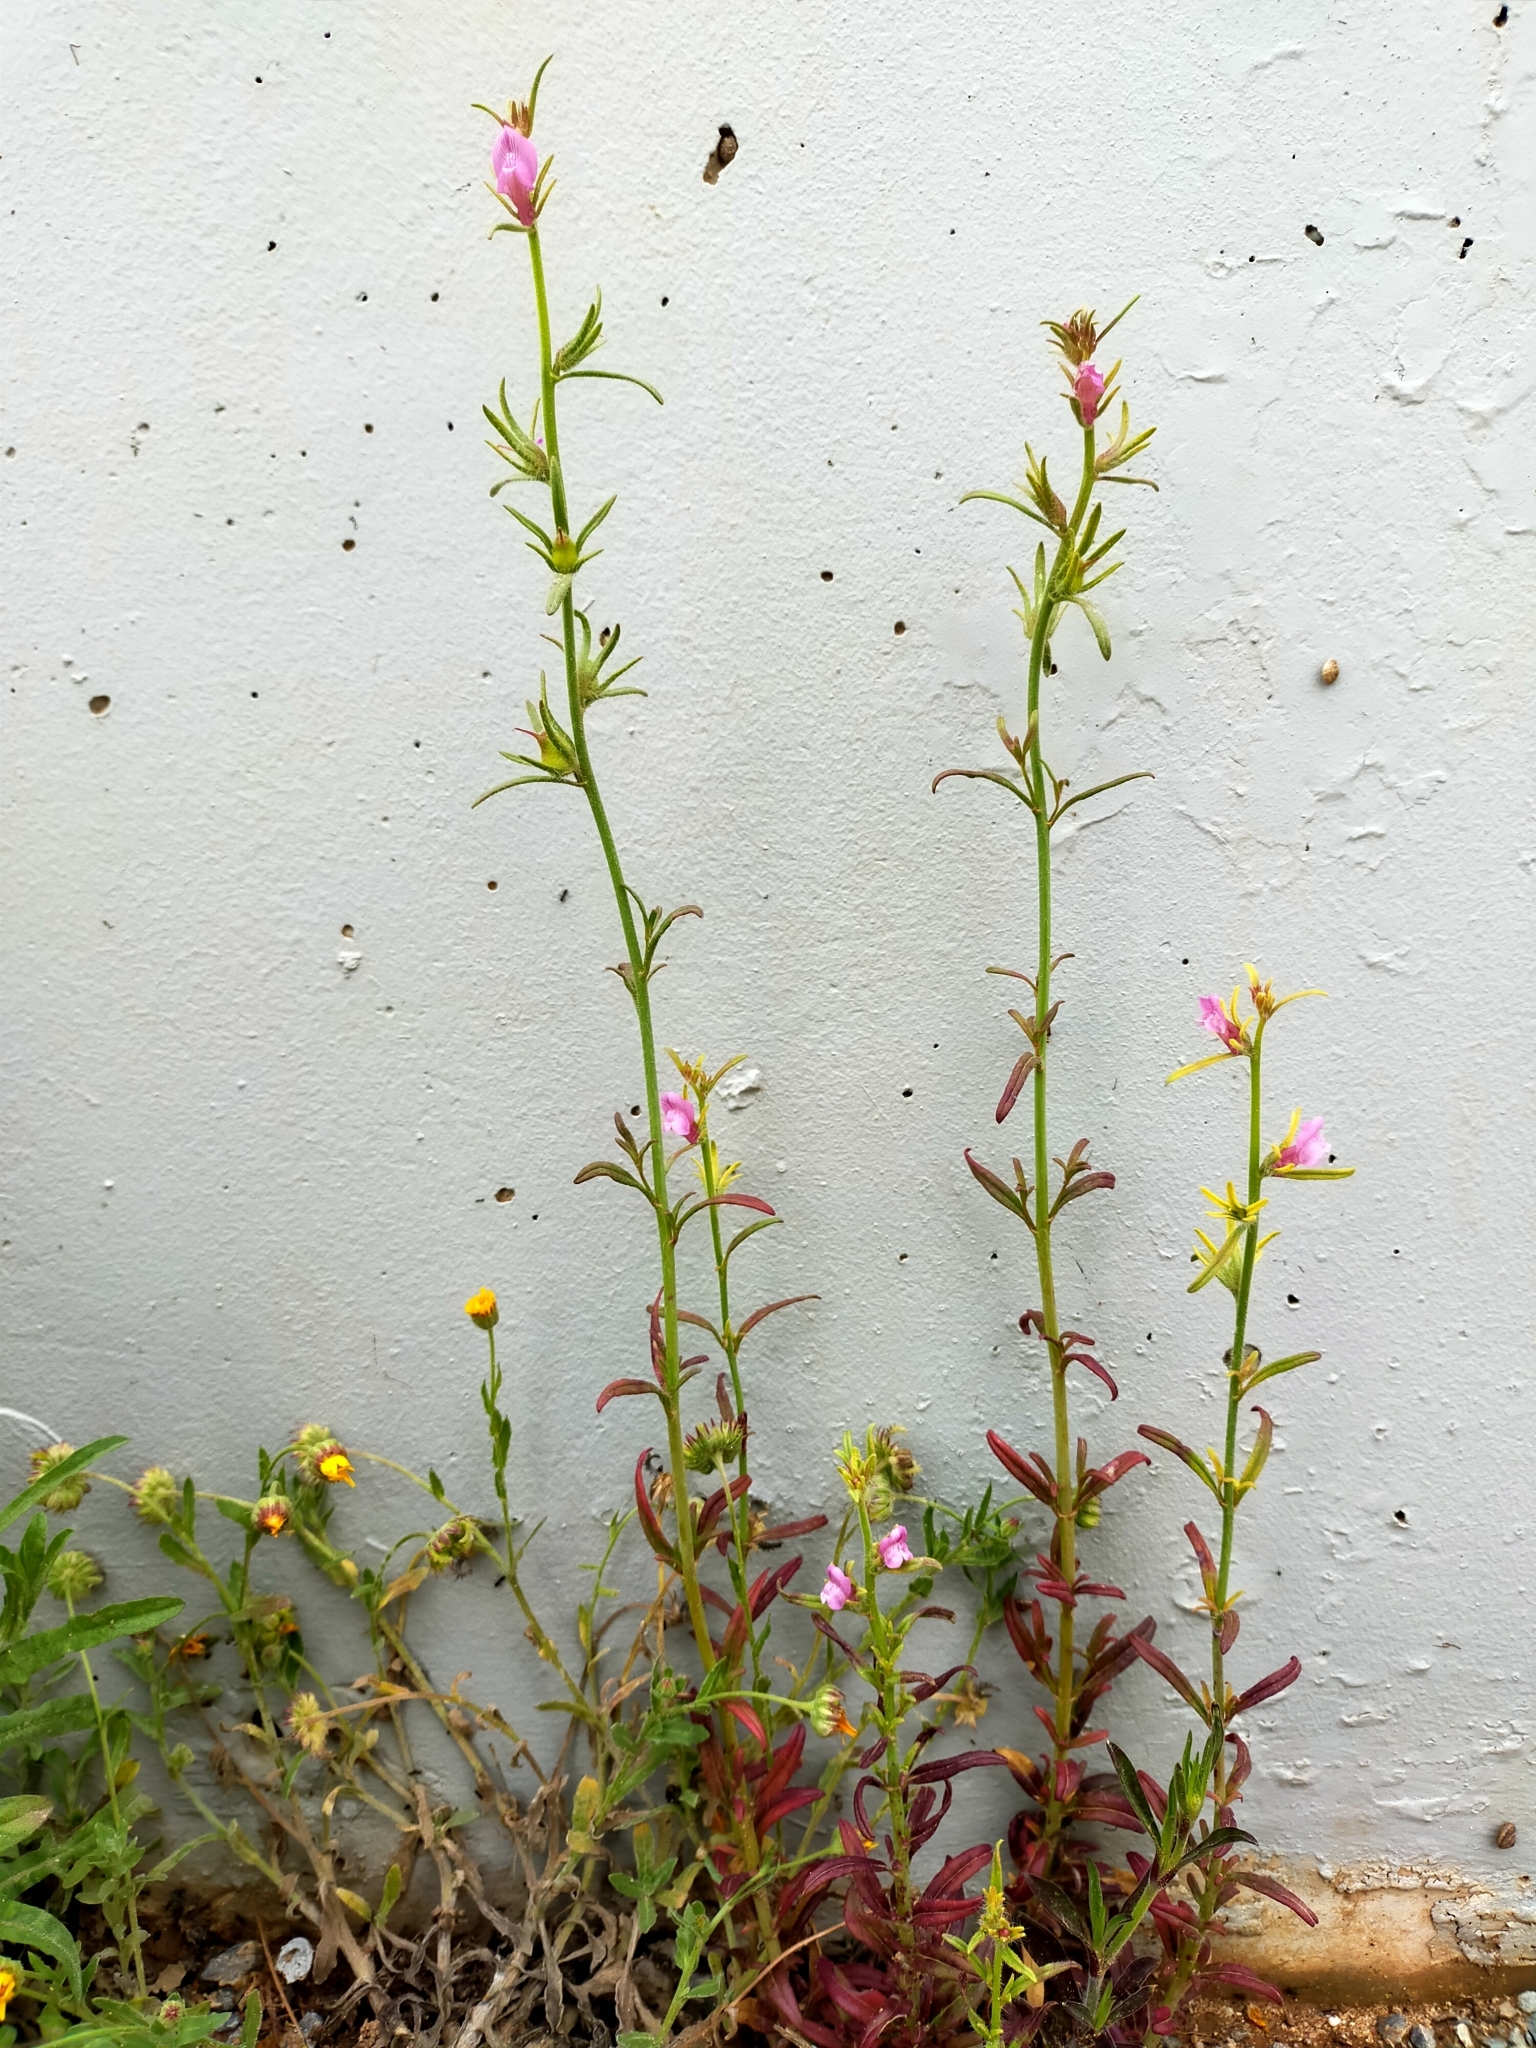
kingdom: Plantae
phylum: Tracheophyta
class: Magnoliopsida
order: Lamiales
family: Plantaginaceae
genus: Misopates
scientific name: Misopates orontium
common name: Weasel's-snout
